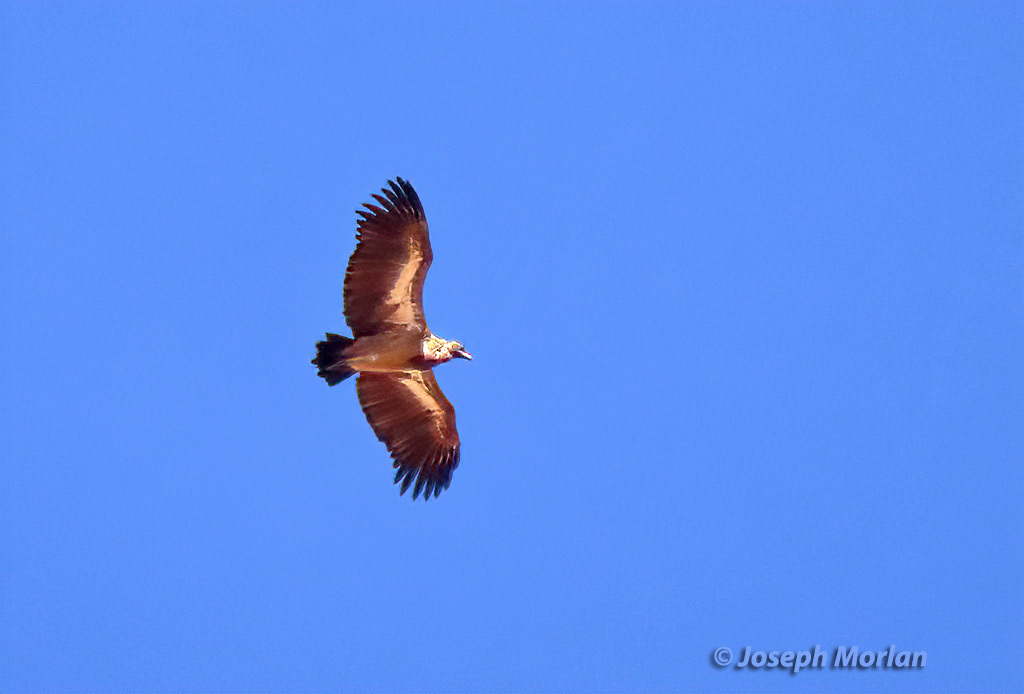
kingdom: Animalia
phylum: Chordata
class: Aves
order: Accipitriformes
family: Accipitridae
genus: Gyps
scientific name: Gyps africanus
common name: White-backed vulture
